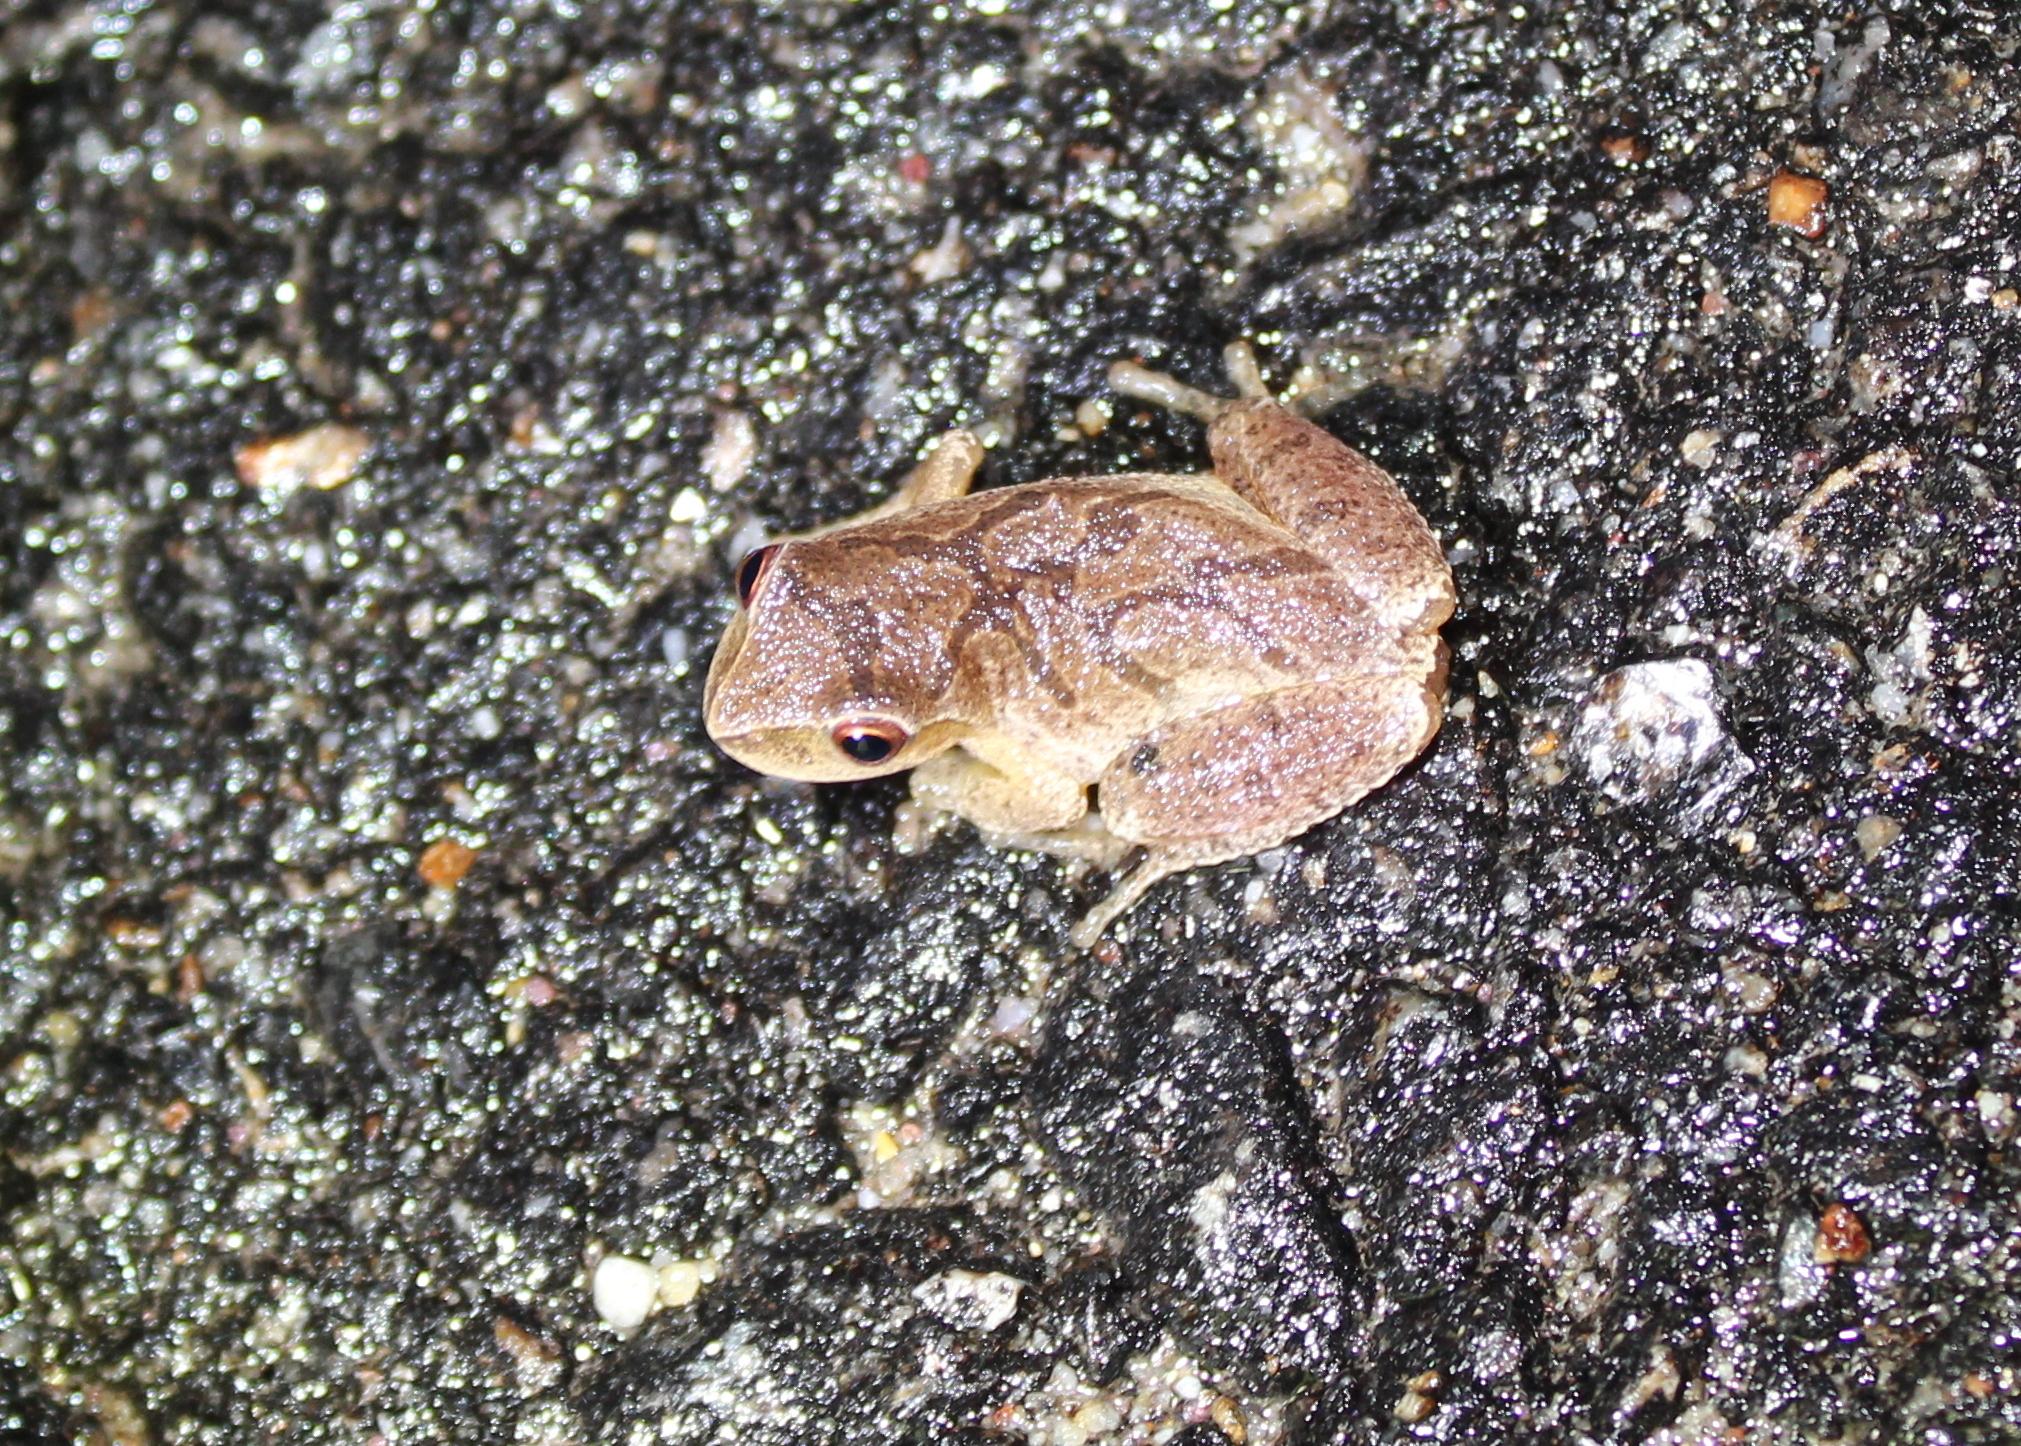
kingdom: Animalia
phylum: Chordata
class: Amphibia
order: Anura
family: Hylidae
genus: Pseudacris
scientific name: Pseudacris crucifer
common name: Spring peeper
